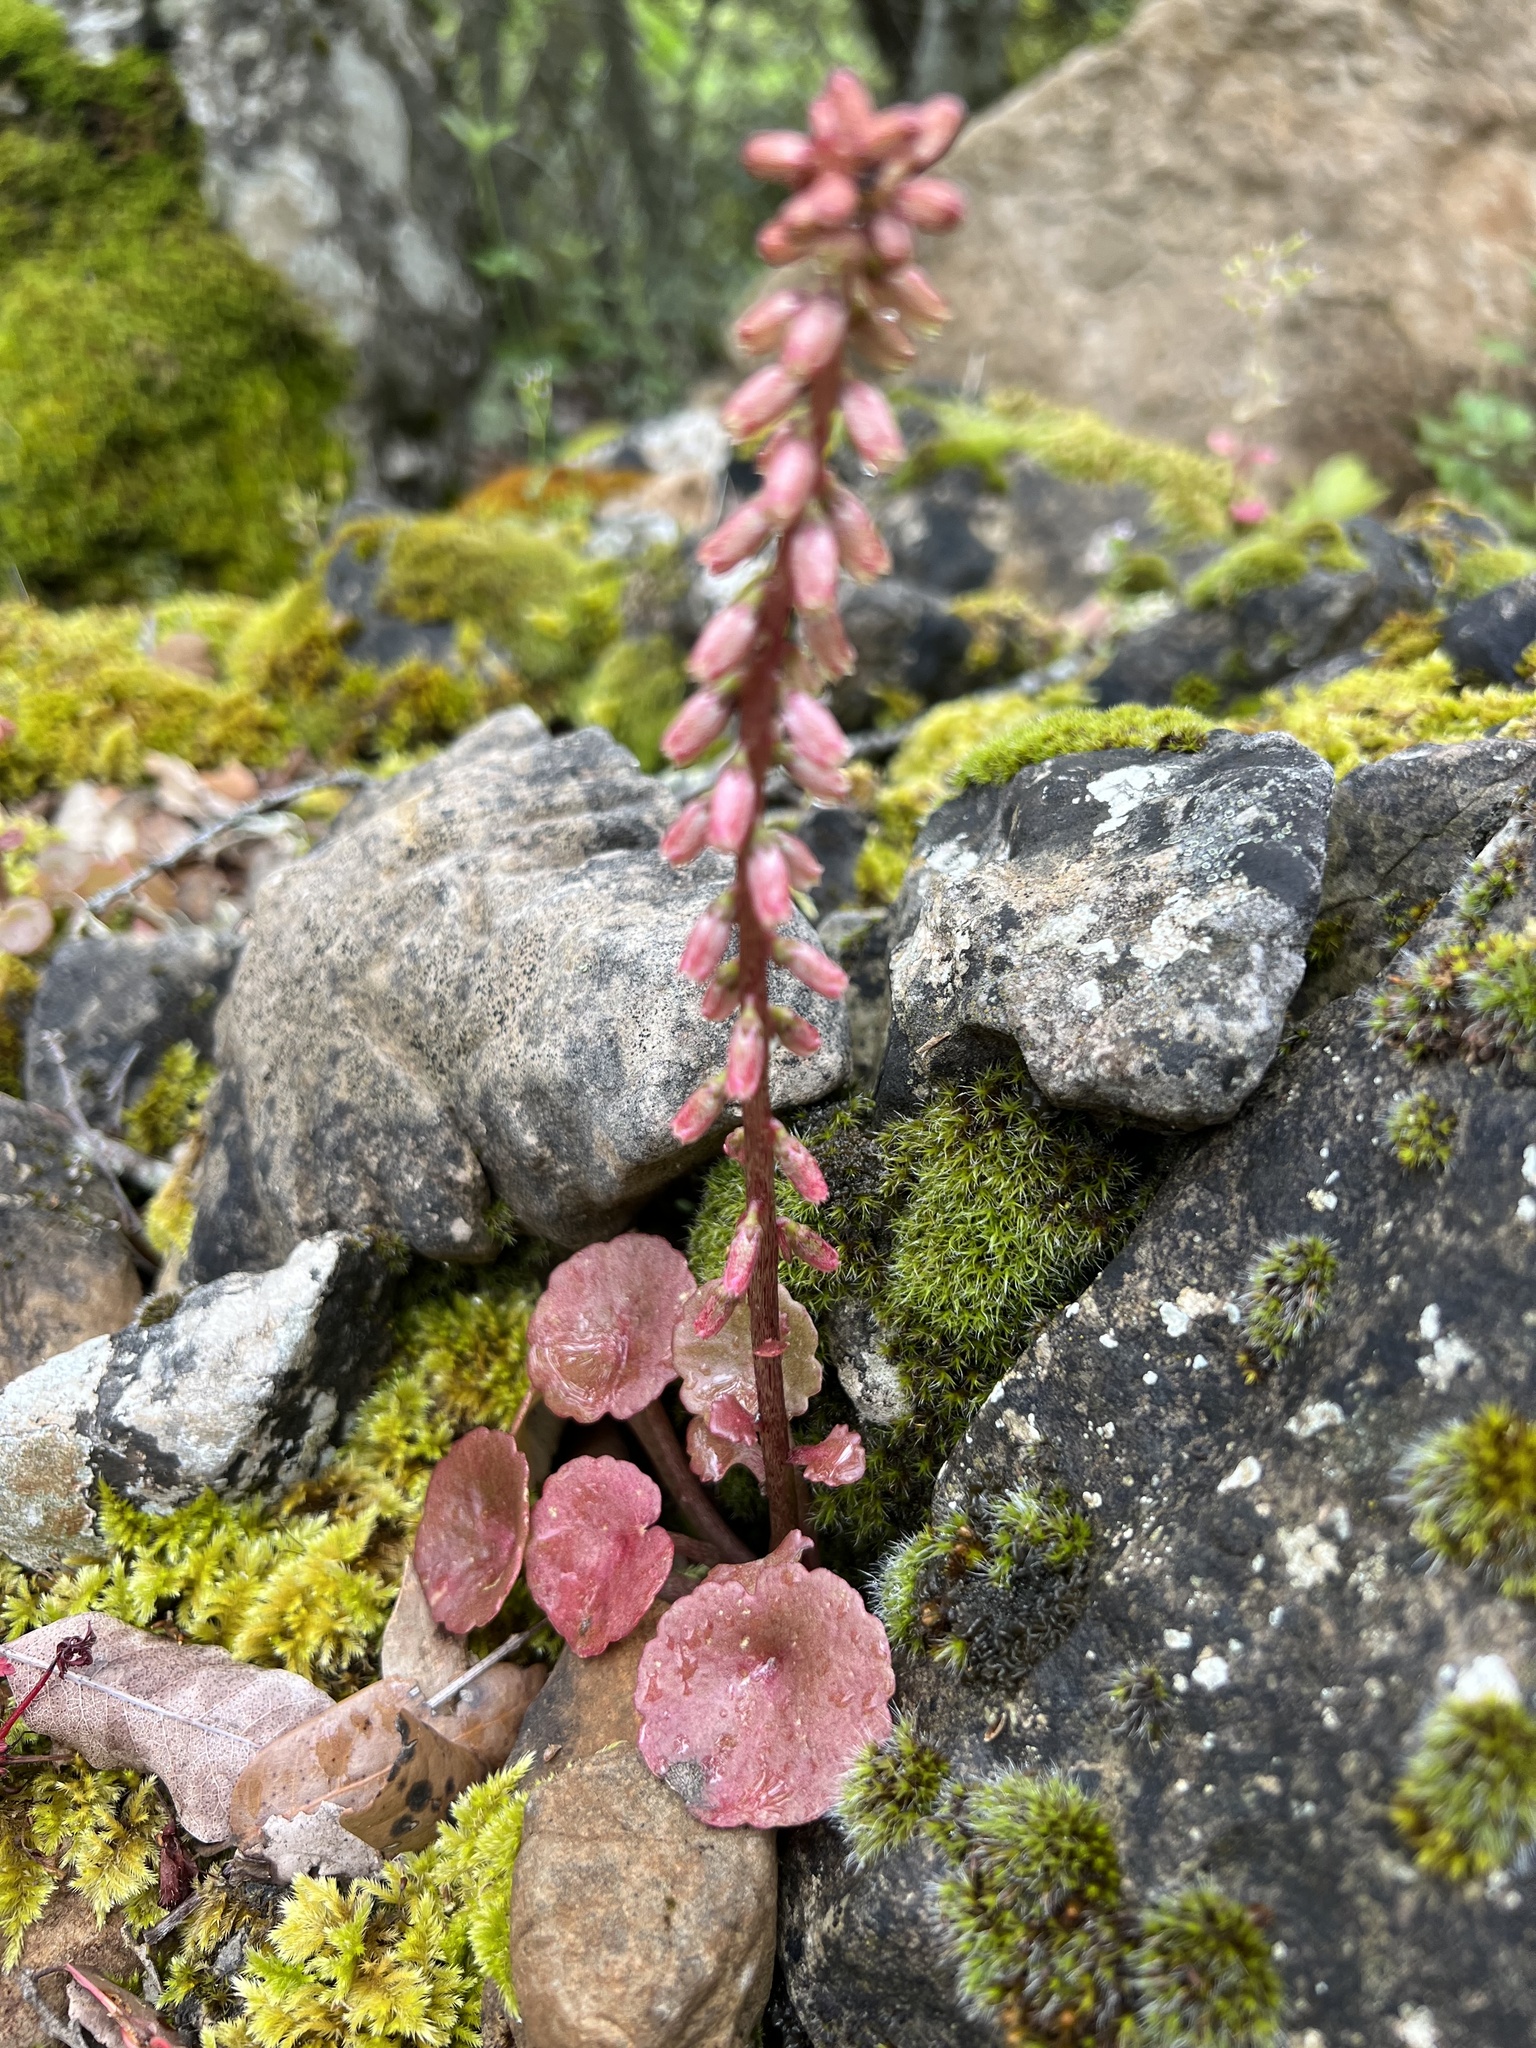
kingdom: Plantae
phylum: Tracheophyta
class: Magnoliopsida
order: Saxifragales
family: Crassulaceae
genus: Umbilicus
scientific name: Umbilicus rupestris
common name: Navelwort
